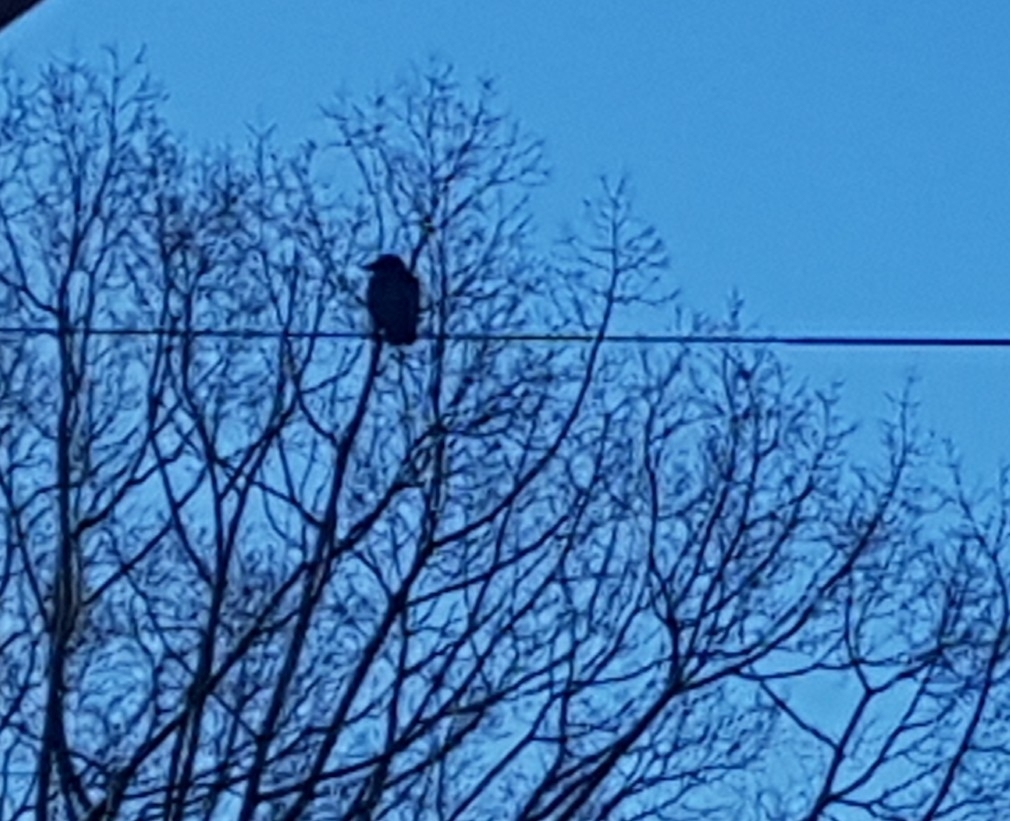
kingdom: Animalia
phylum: Chordata
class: Aves
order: Passeriformes
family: Corvidae
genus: Corvus
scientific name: Corvus brachyrhynchos
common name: American crow
